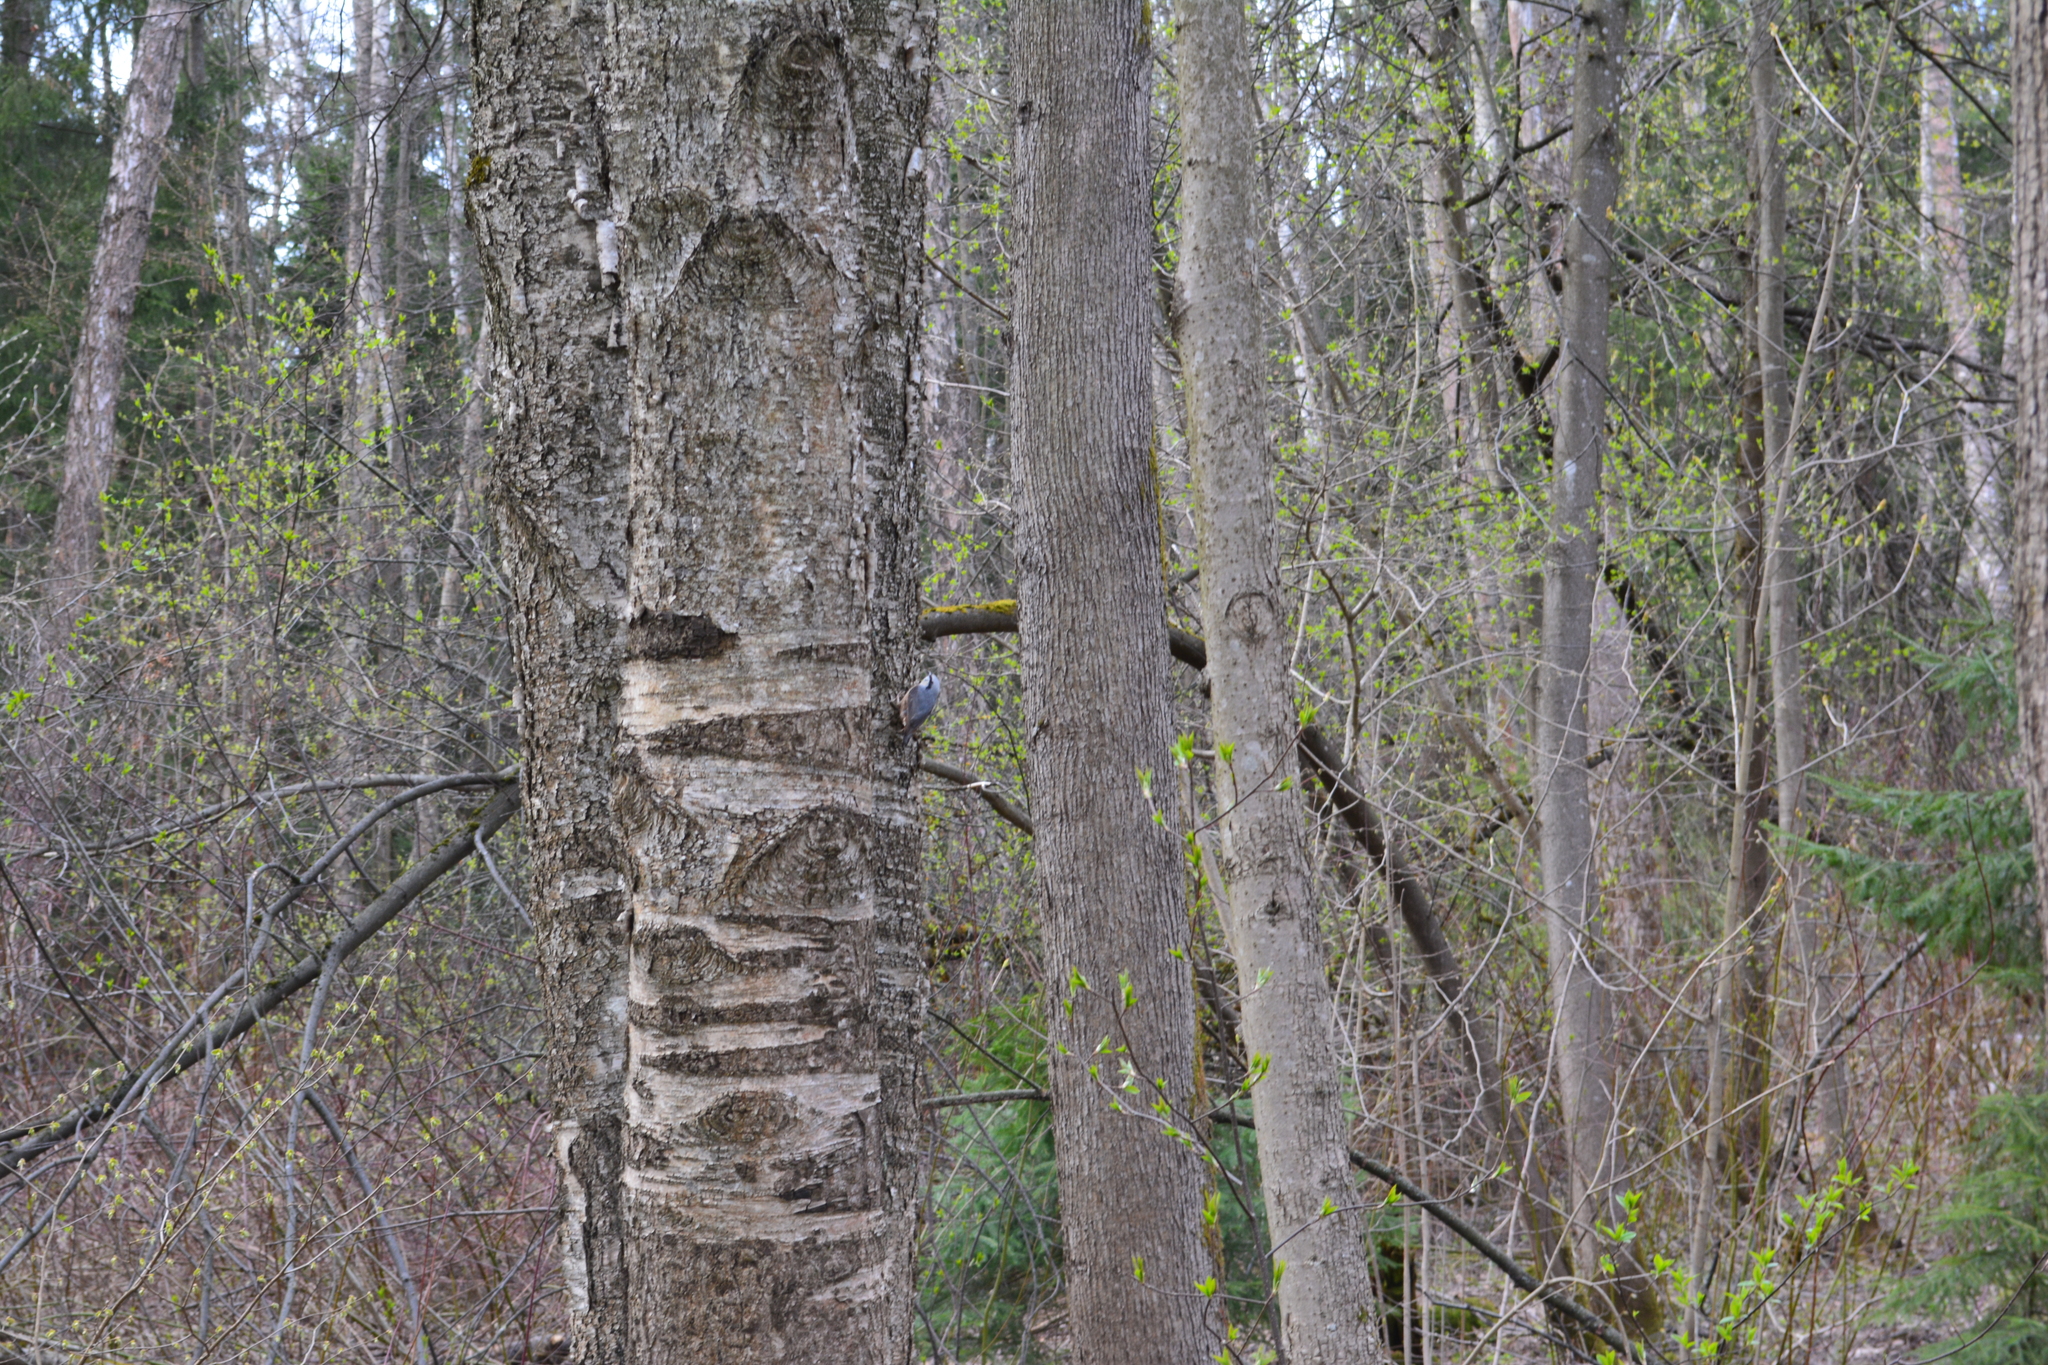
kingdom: Animalia
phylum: Chordata
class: Aves
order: Passeriformes
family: Sittidae
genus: Sitta
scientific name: Sitta europaea
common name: Eurasian nuthatch
